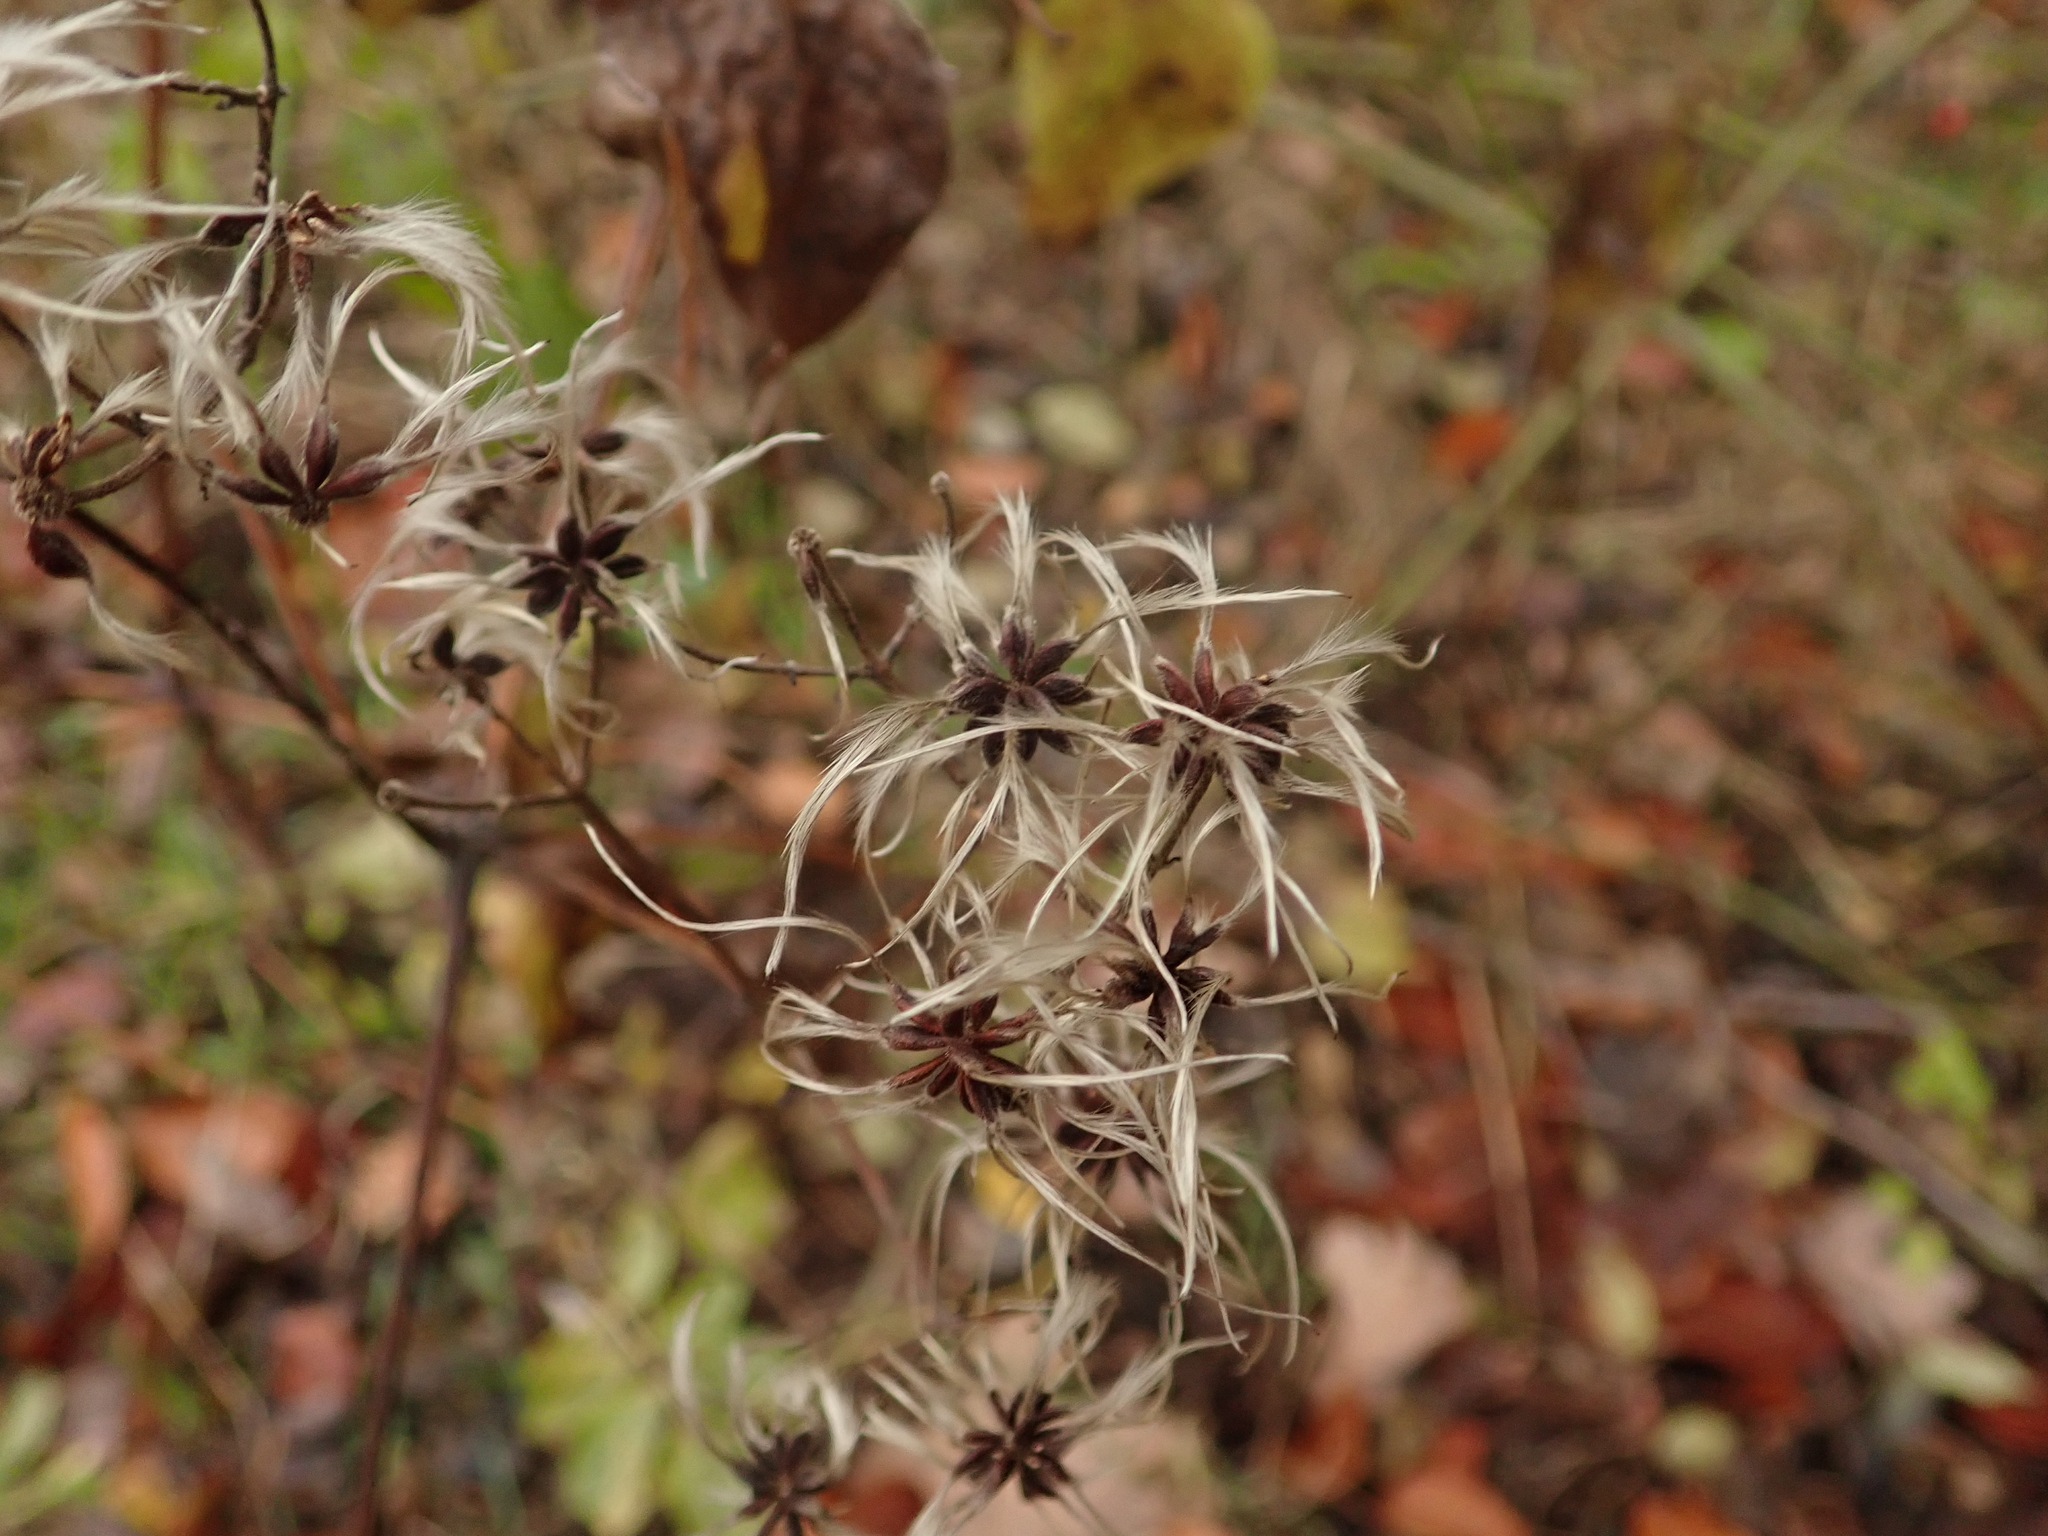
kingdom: Plantae
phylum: Tracheophyta
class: Magnoliopsida
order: Ranunculales
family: Ranunculaceae
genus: Clematis
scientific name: Clematis vitalba
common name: Evergreen clematis
